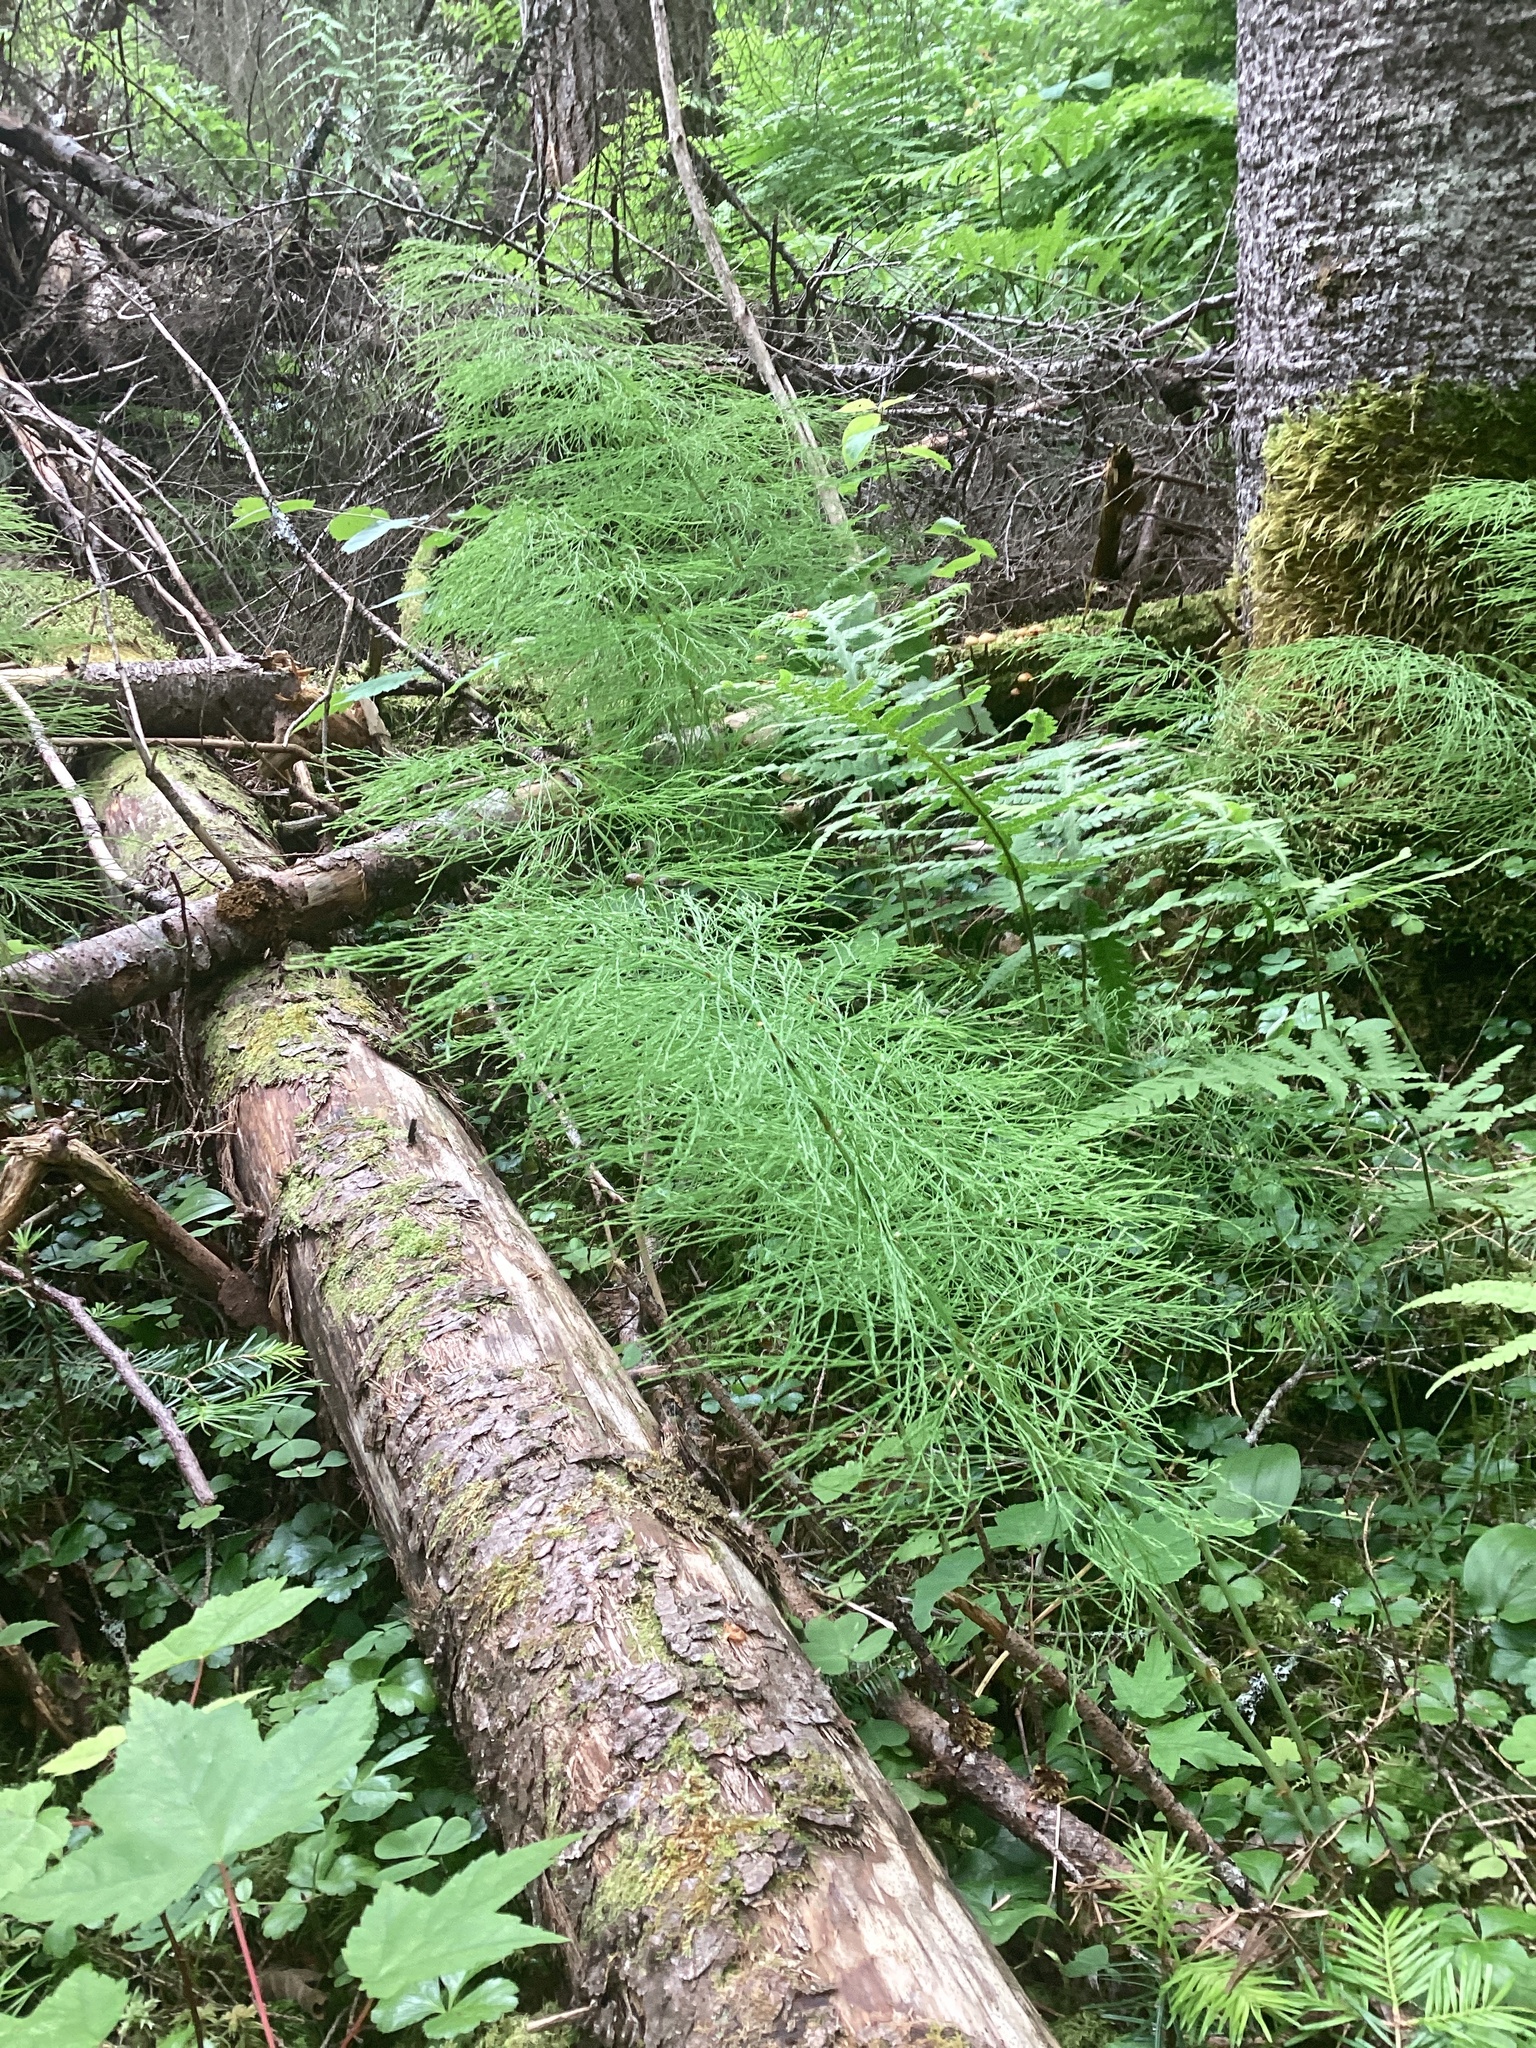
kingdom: Plantae
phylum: Tracheophyta
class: Polypodiopsida
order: Equisetales
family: Equisetaceae
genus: Equisetum
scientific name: Equisetum sylvaticum
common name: Wood horsetail
